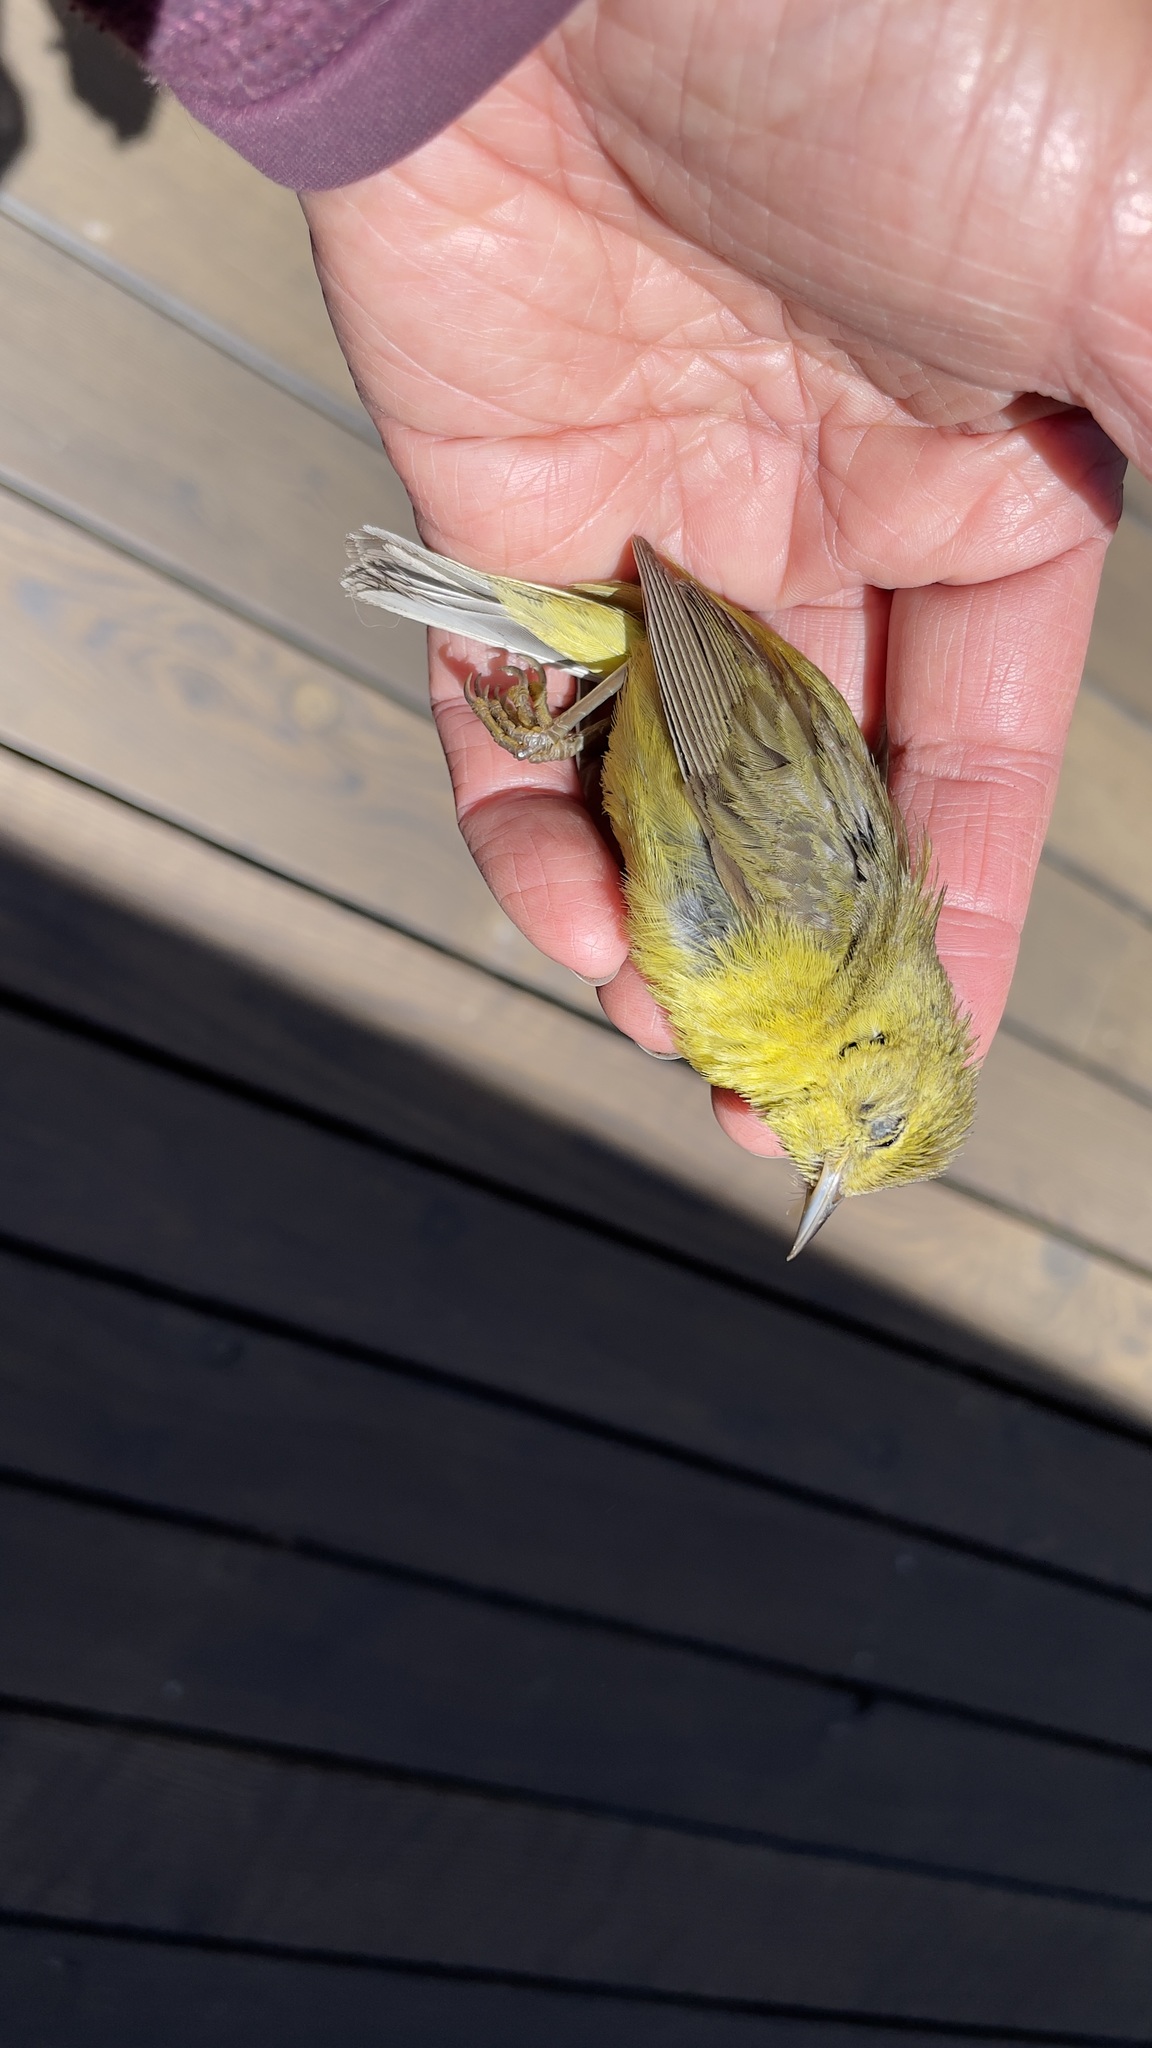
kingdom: Animalia
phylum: Chordata
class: Aves
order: Passeriformes
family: Parulidae
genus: Leiothlypis
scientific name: Leiothlypis celata
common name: Orange-crowned warbler
